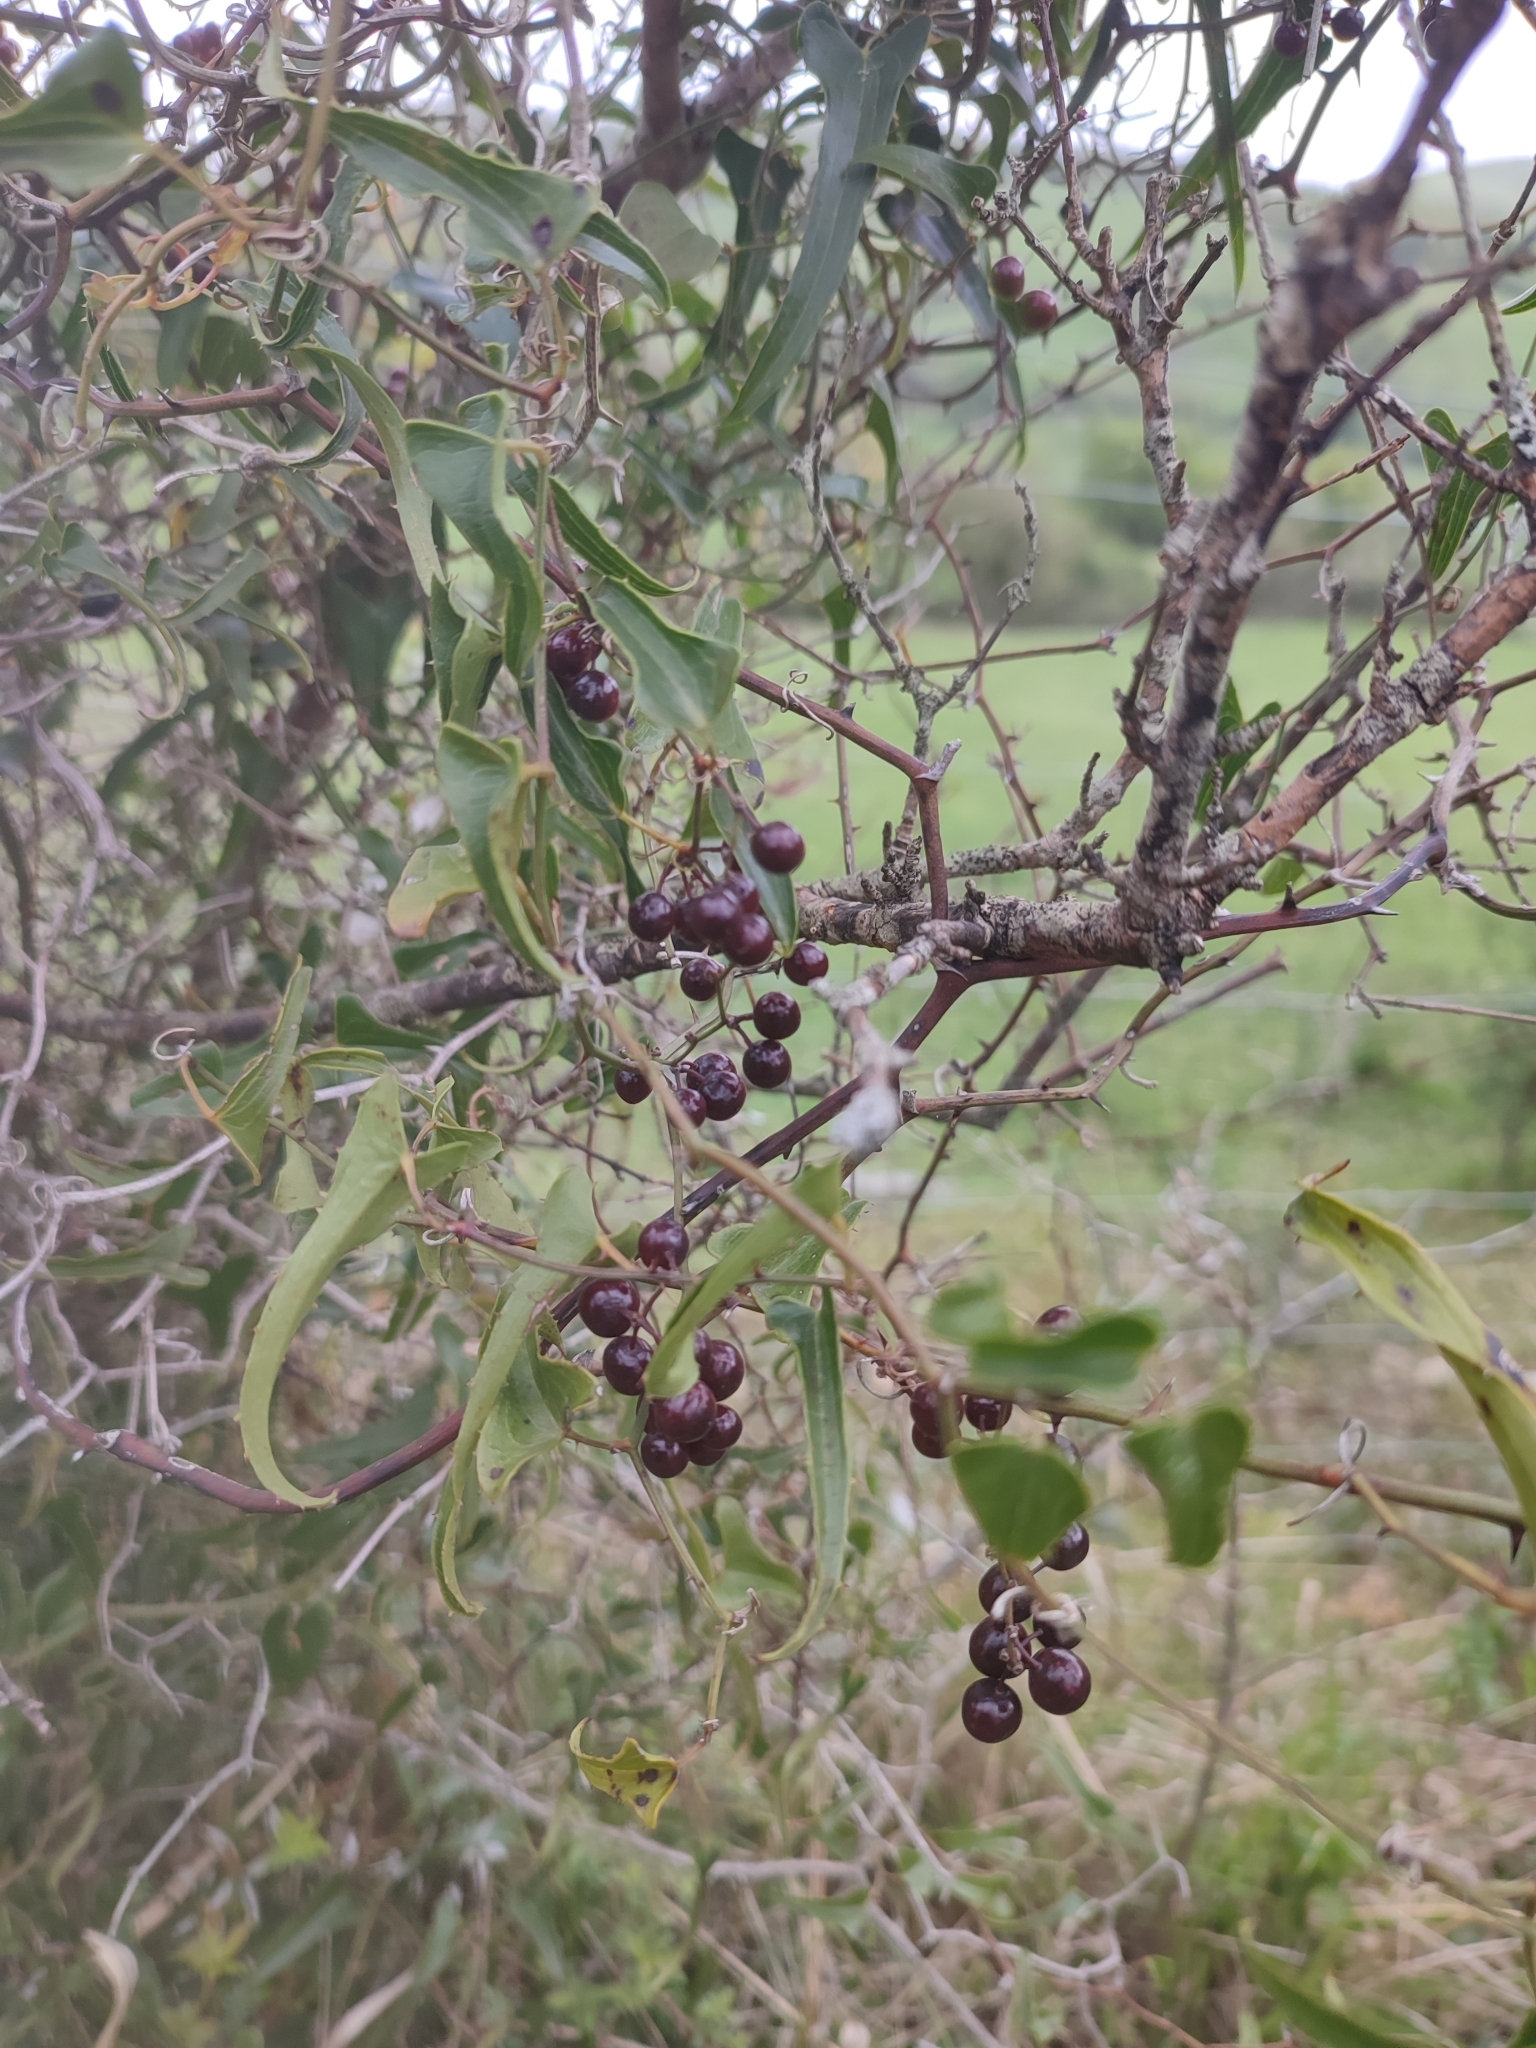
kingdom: Plantae
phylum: Tracheophyta
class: Liliopsida
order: Liliales
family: Smilacaceae
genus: Smilax
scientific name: Smilax aspera
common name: Common smilax
